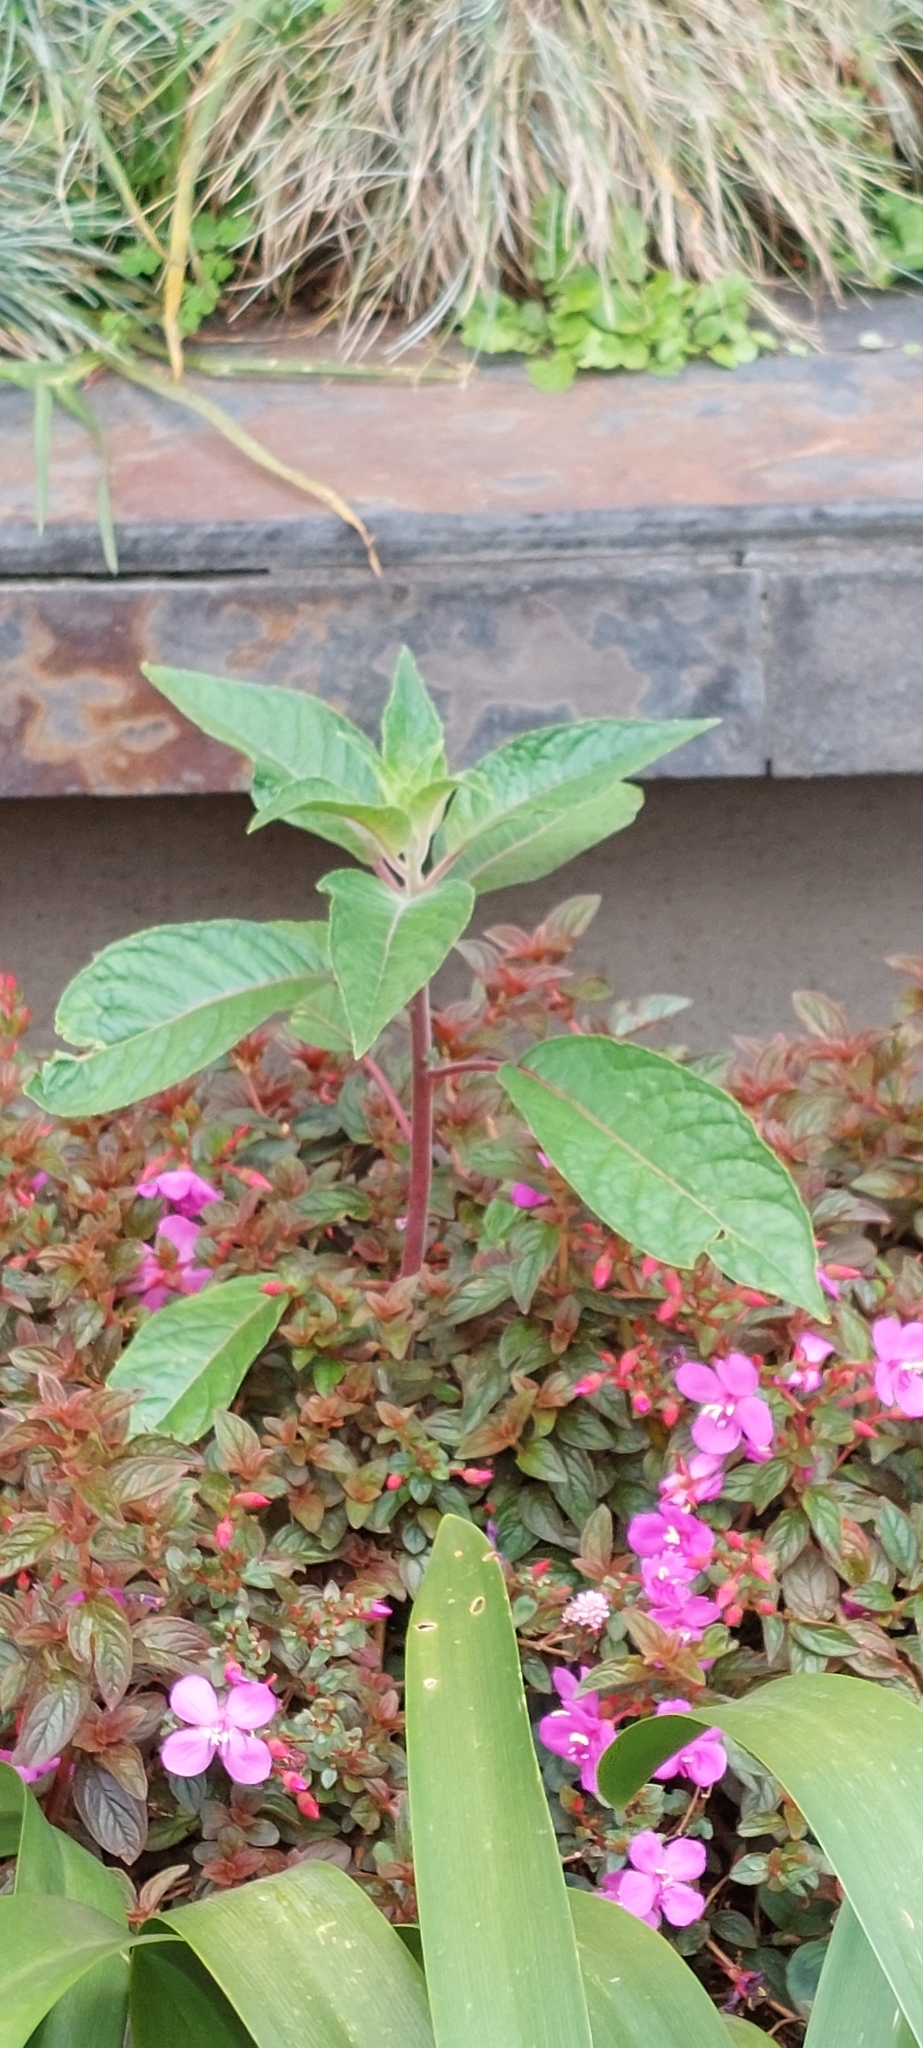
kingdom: Plantae
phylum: Tracheophyta
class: Magnoliopsida
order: Myrtales
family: Onagraceae
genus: Fuchsia
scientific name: Fuchsia boliviana
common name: Bolivian fuchsia
